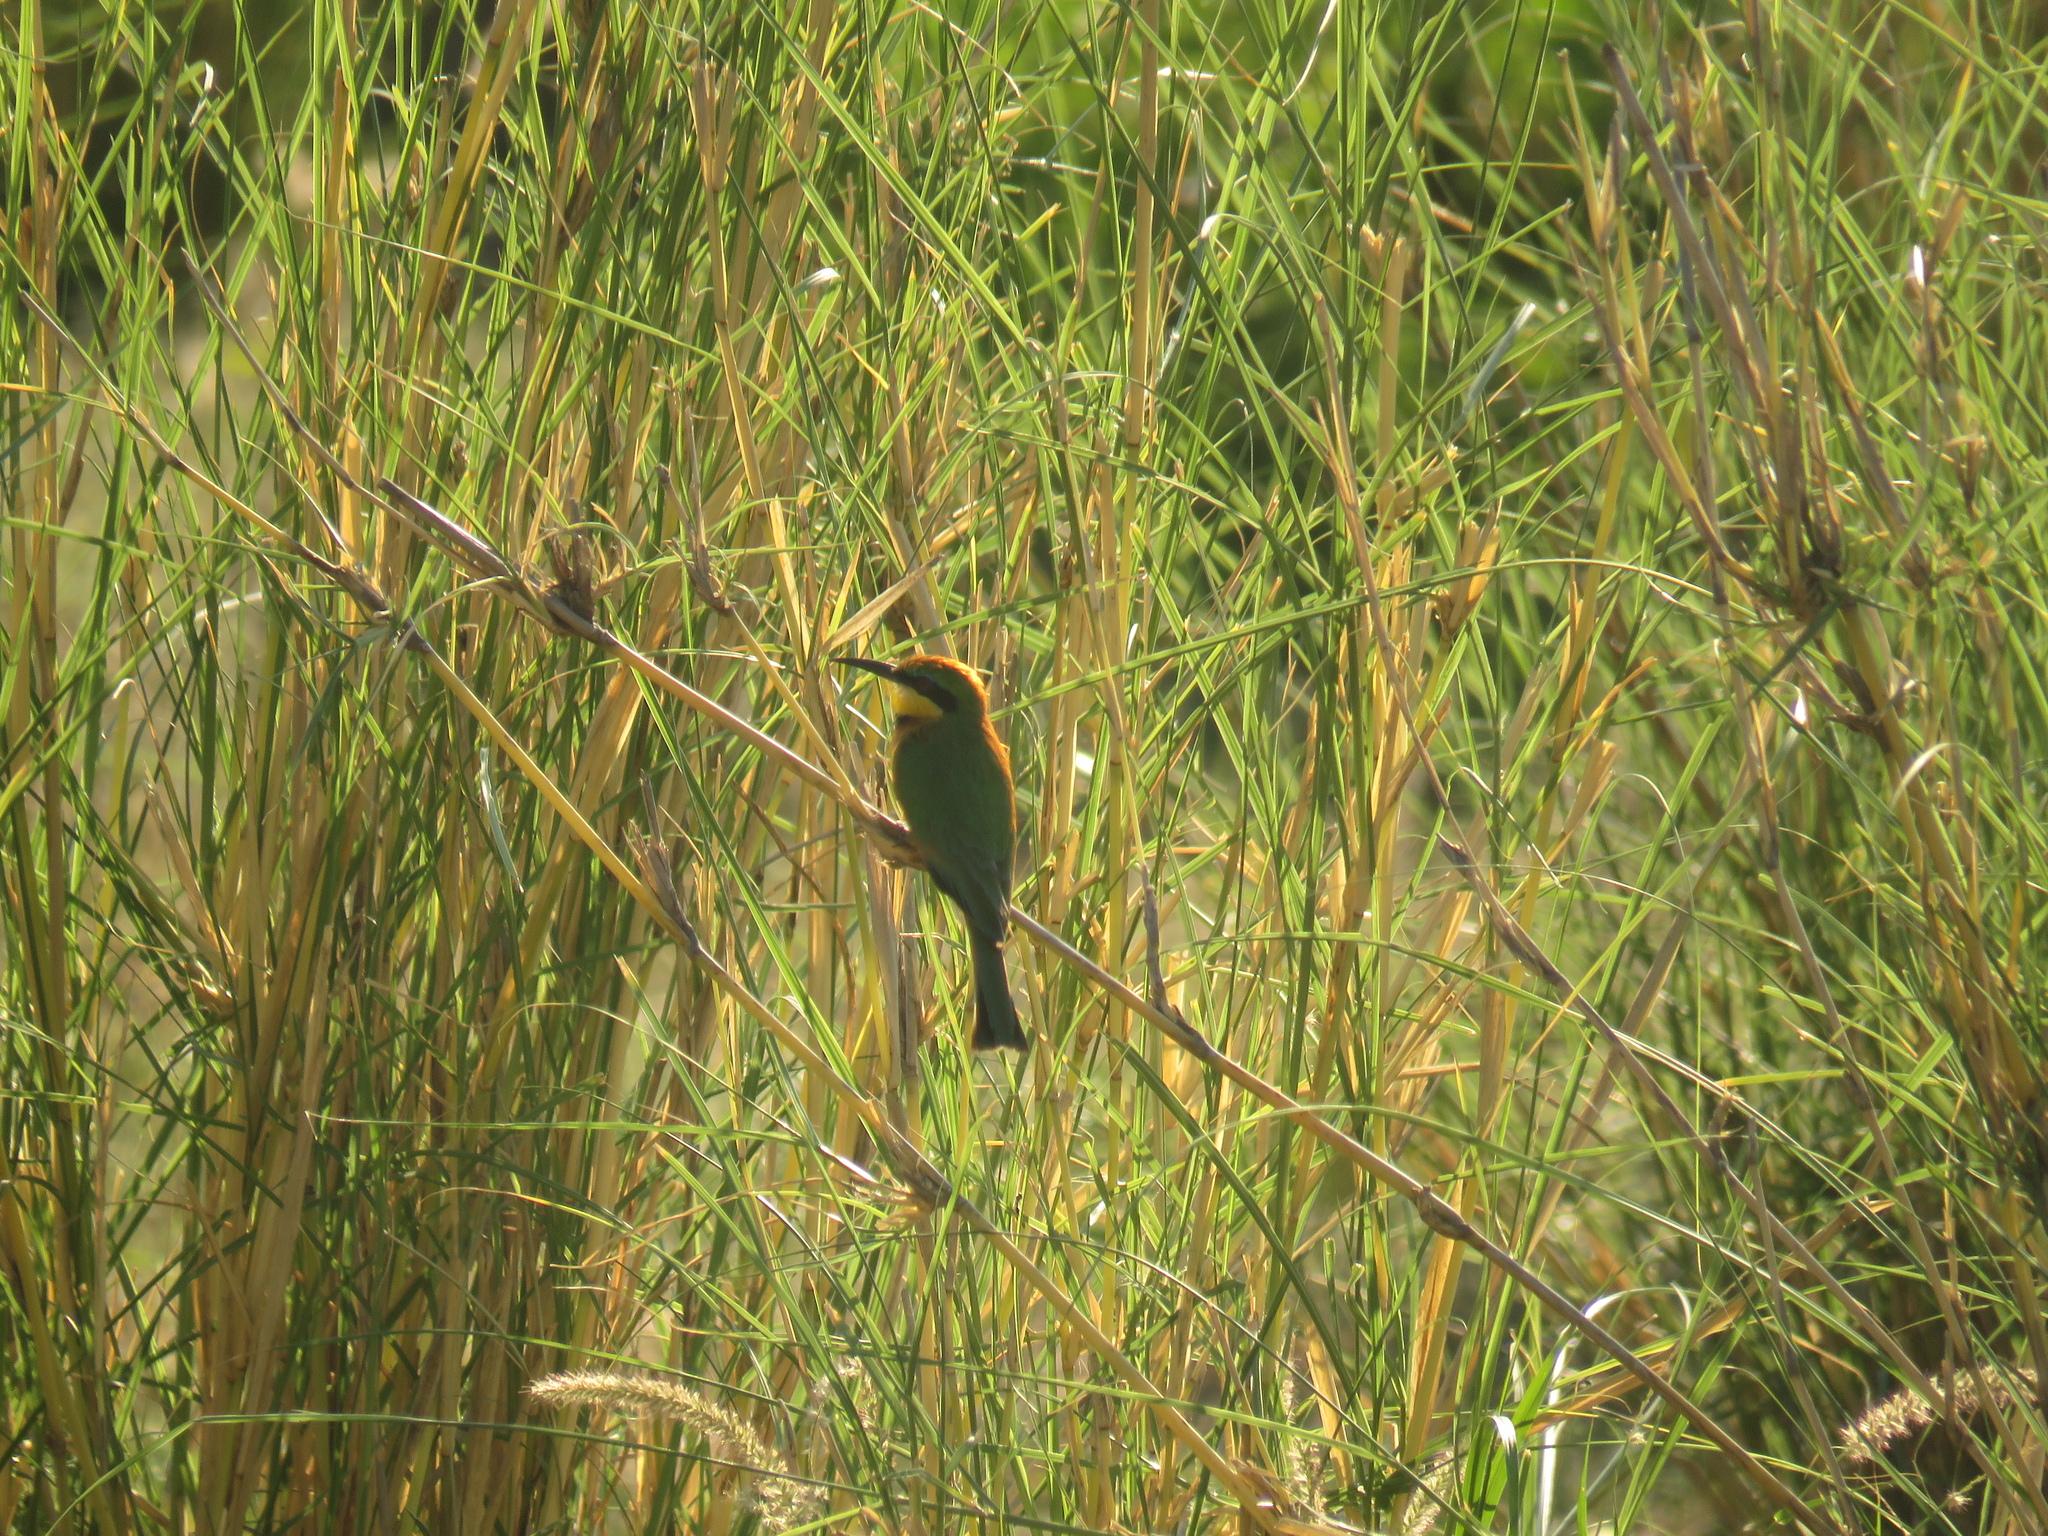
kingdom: Animalia
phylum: Chordata
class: Aves
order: Coraciiformes
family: Meropidae
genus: Merops
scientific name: Merops pusillus
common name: Little bee-eater
